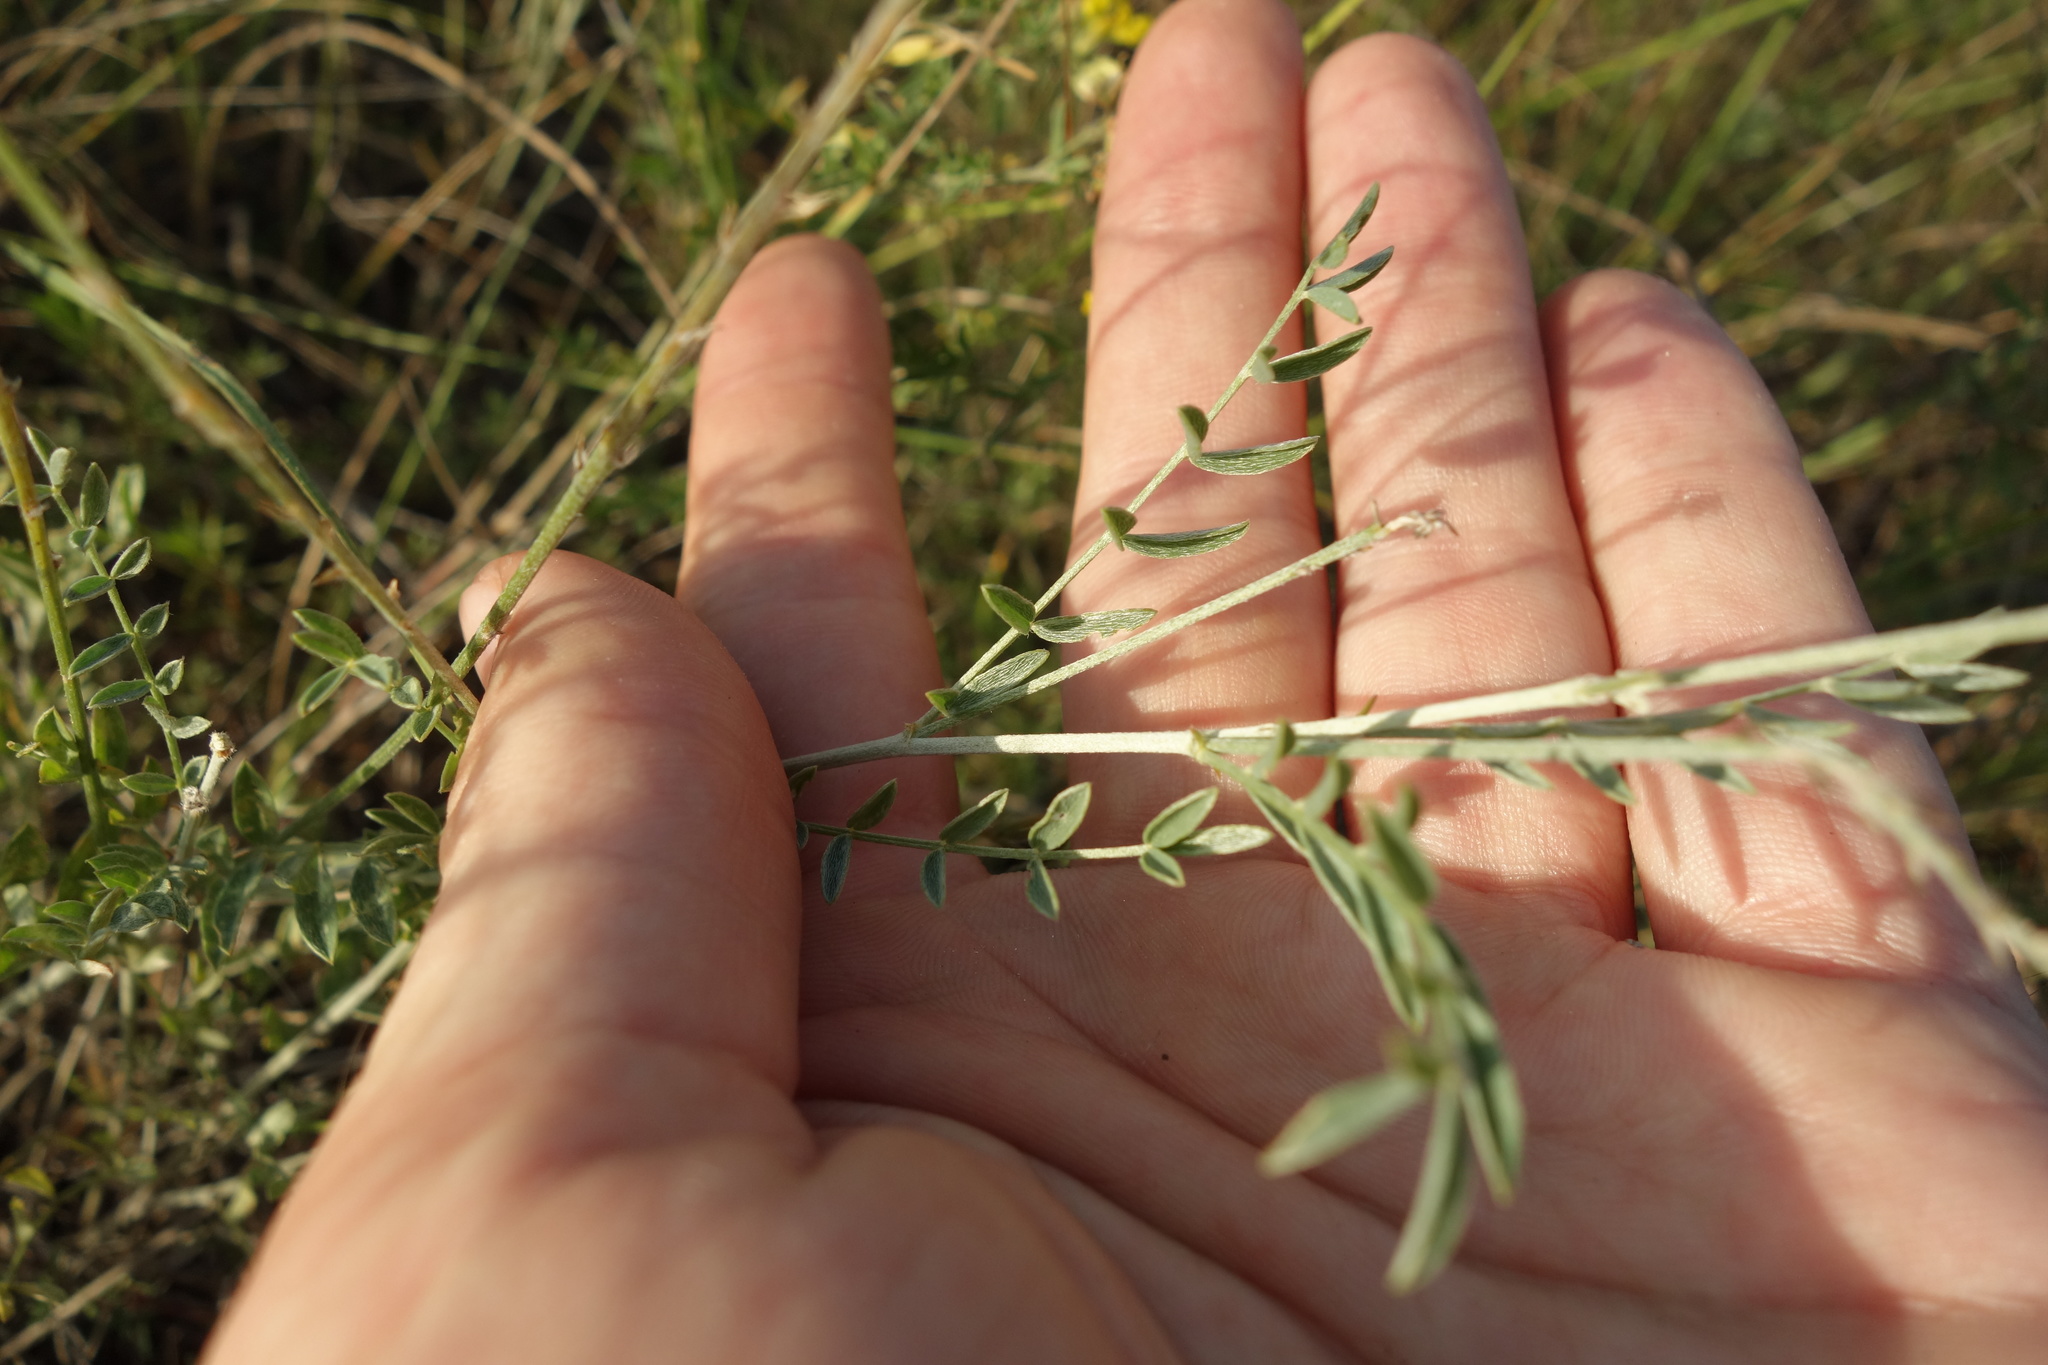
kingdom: Plantae
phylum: Tracheophyta
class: Magnoliopsida
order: Fabales
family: Fabaceae
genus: Astragalus
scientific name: Astragalus varius
